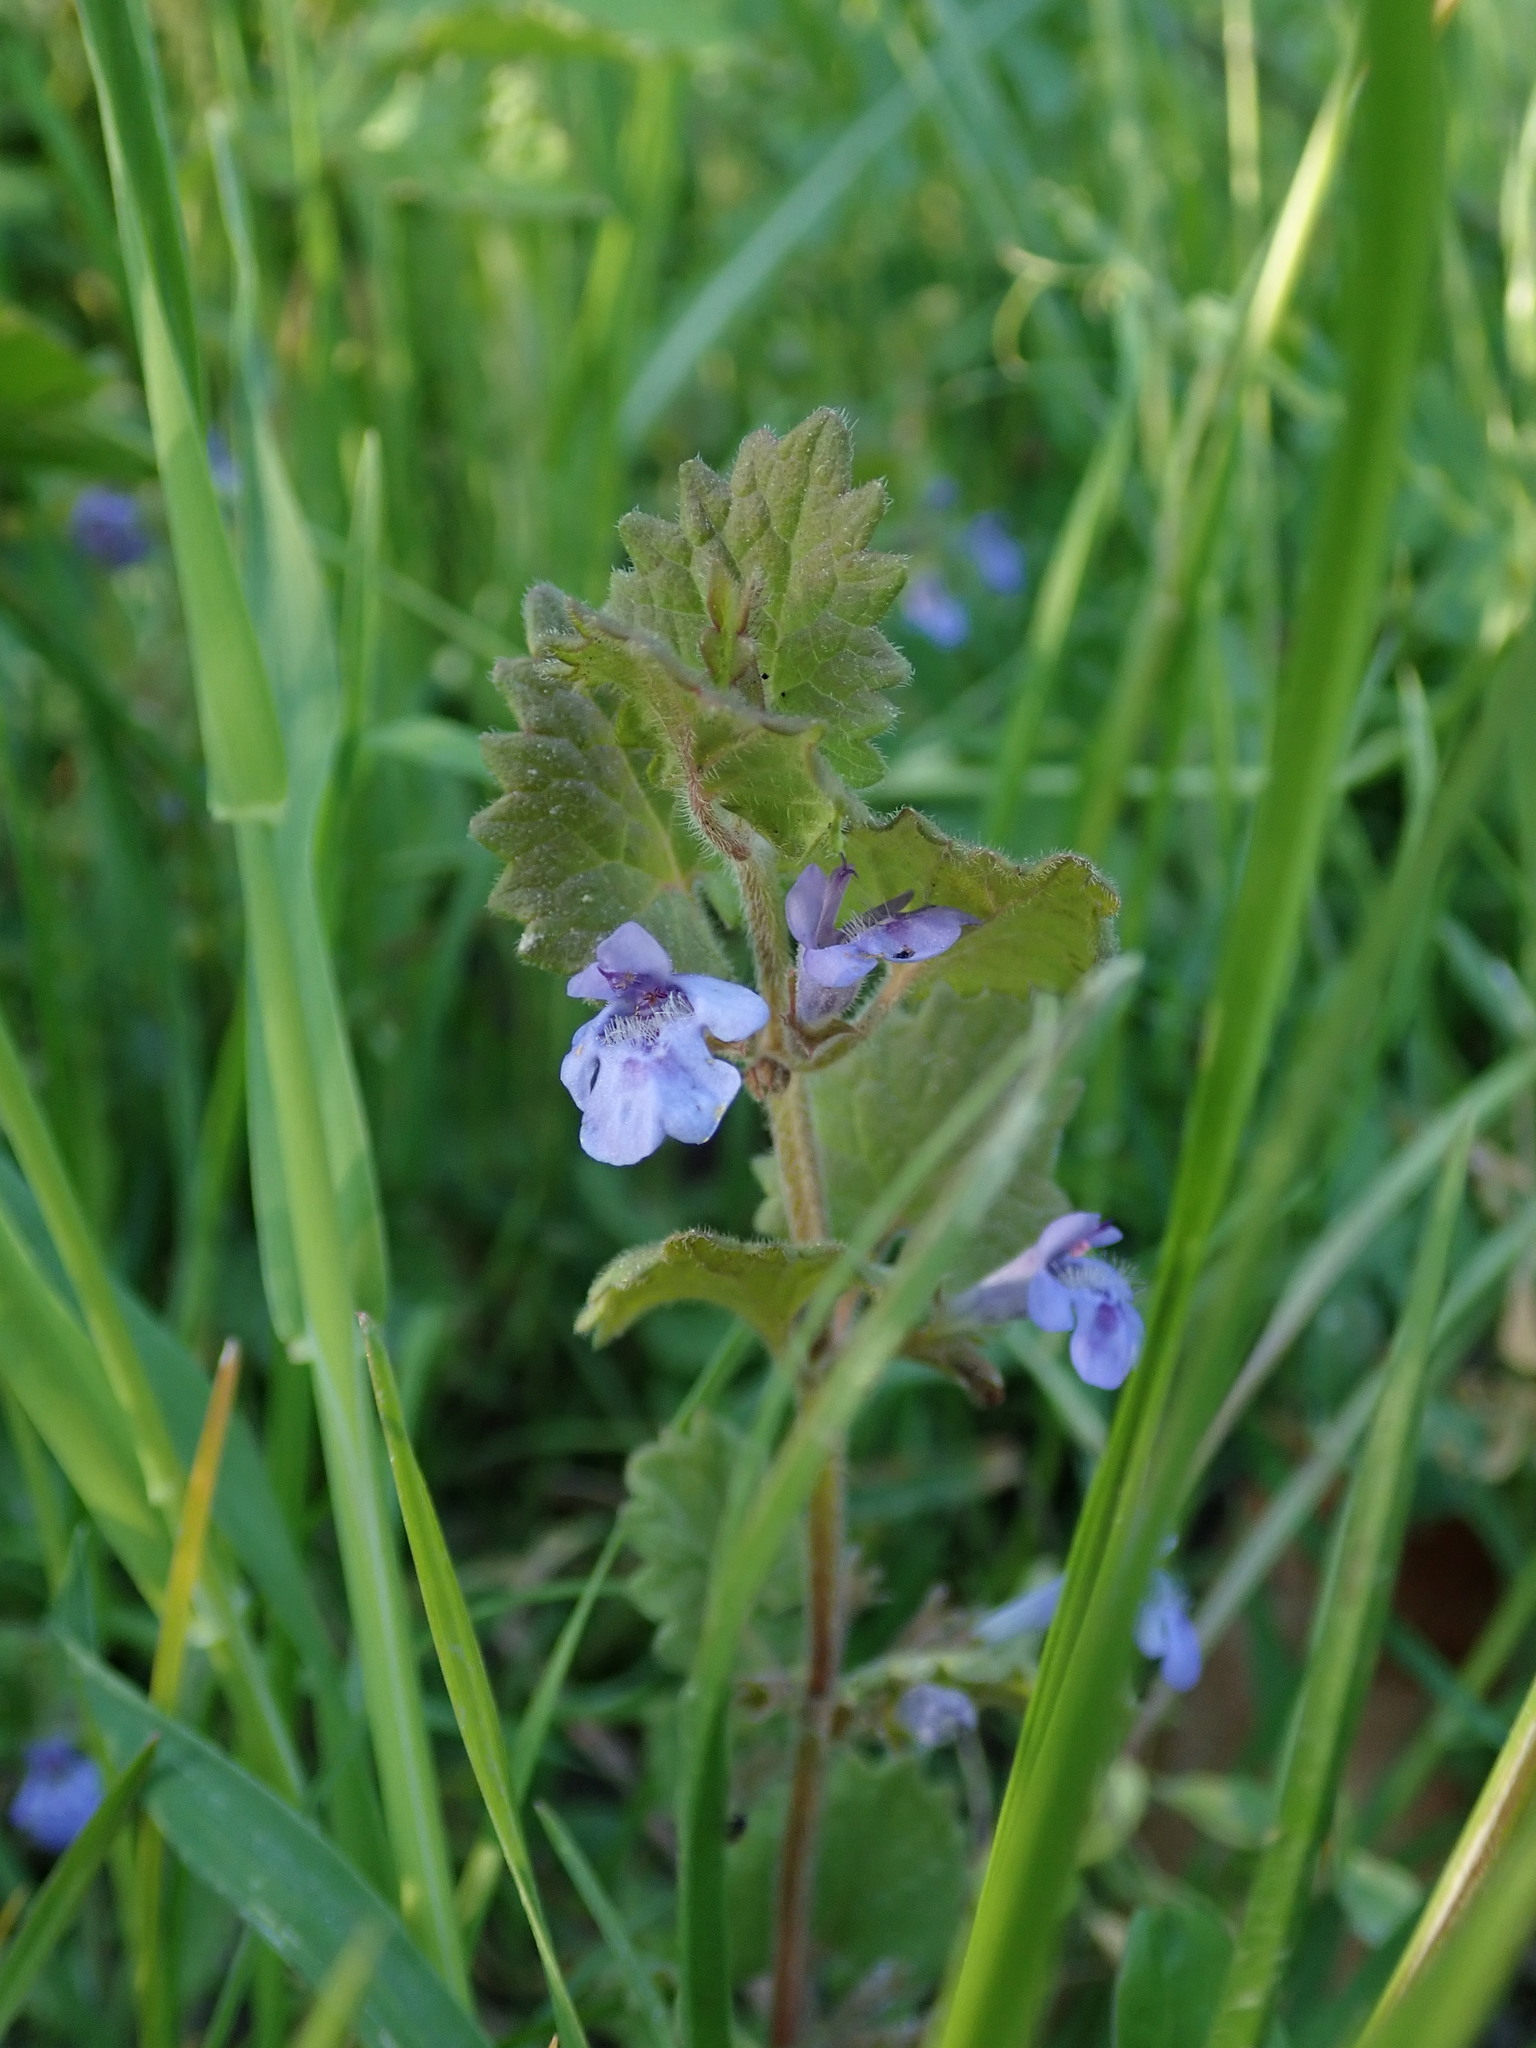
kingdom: Plantae
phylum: Tracheophyta
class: Magnoliopsida
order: Lamiales
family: Lamiaceae
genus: Glechoma
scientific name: Glechoma hederacea
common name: Ground ivy
